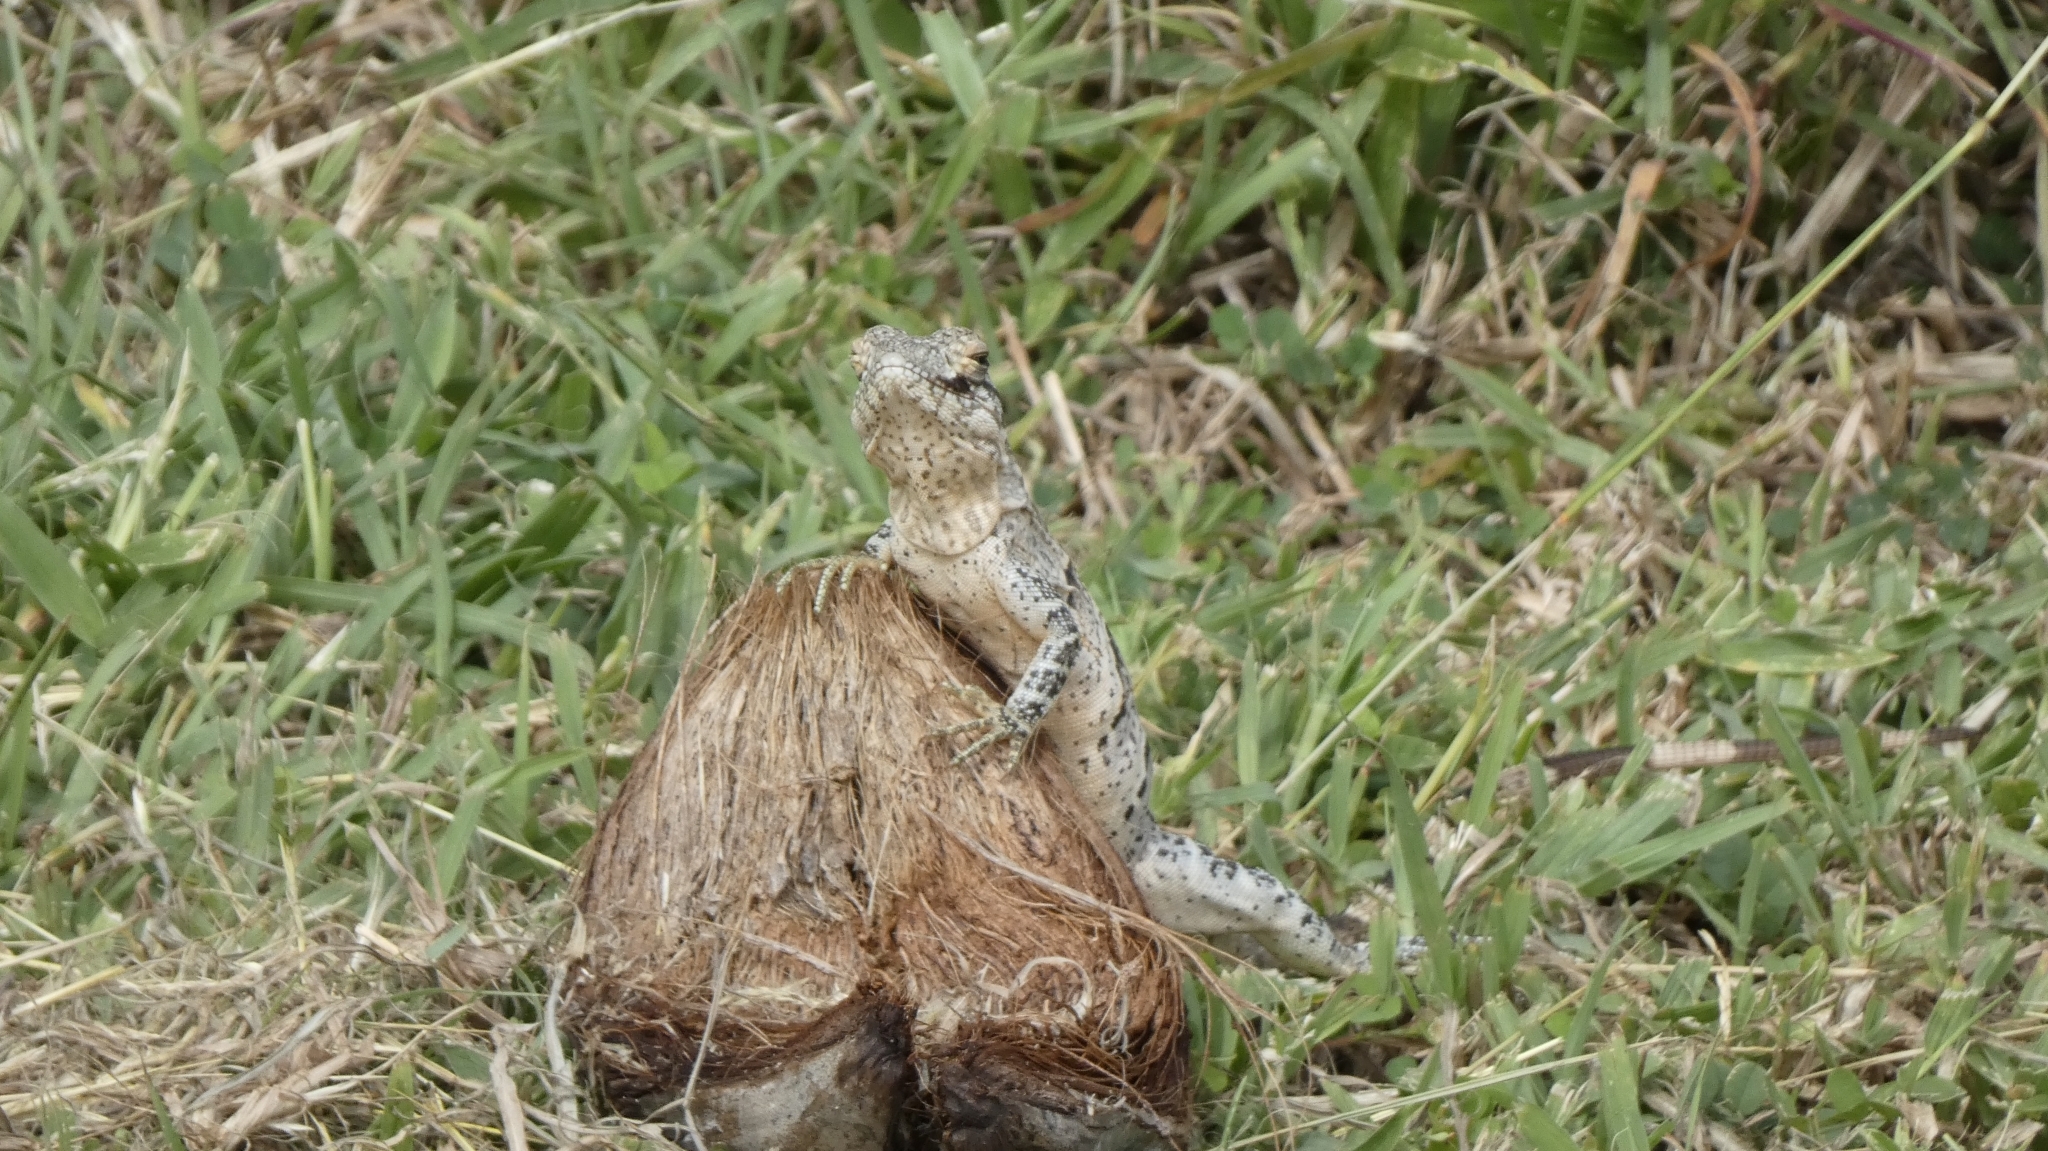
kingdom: Animalia
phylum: Chordata
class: Squamata
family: Iguanidae
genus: Ctenosaura
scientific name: Ctenosaura similis
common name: Black spiny-tailed iguana
